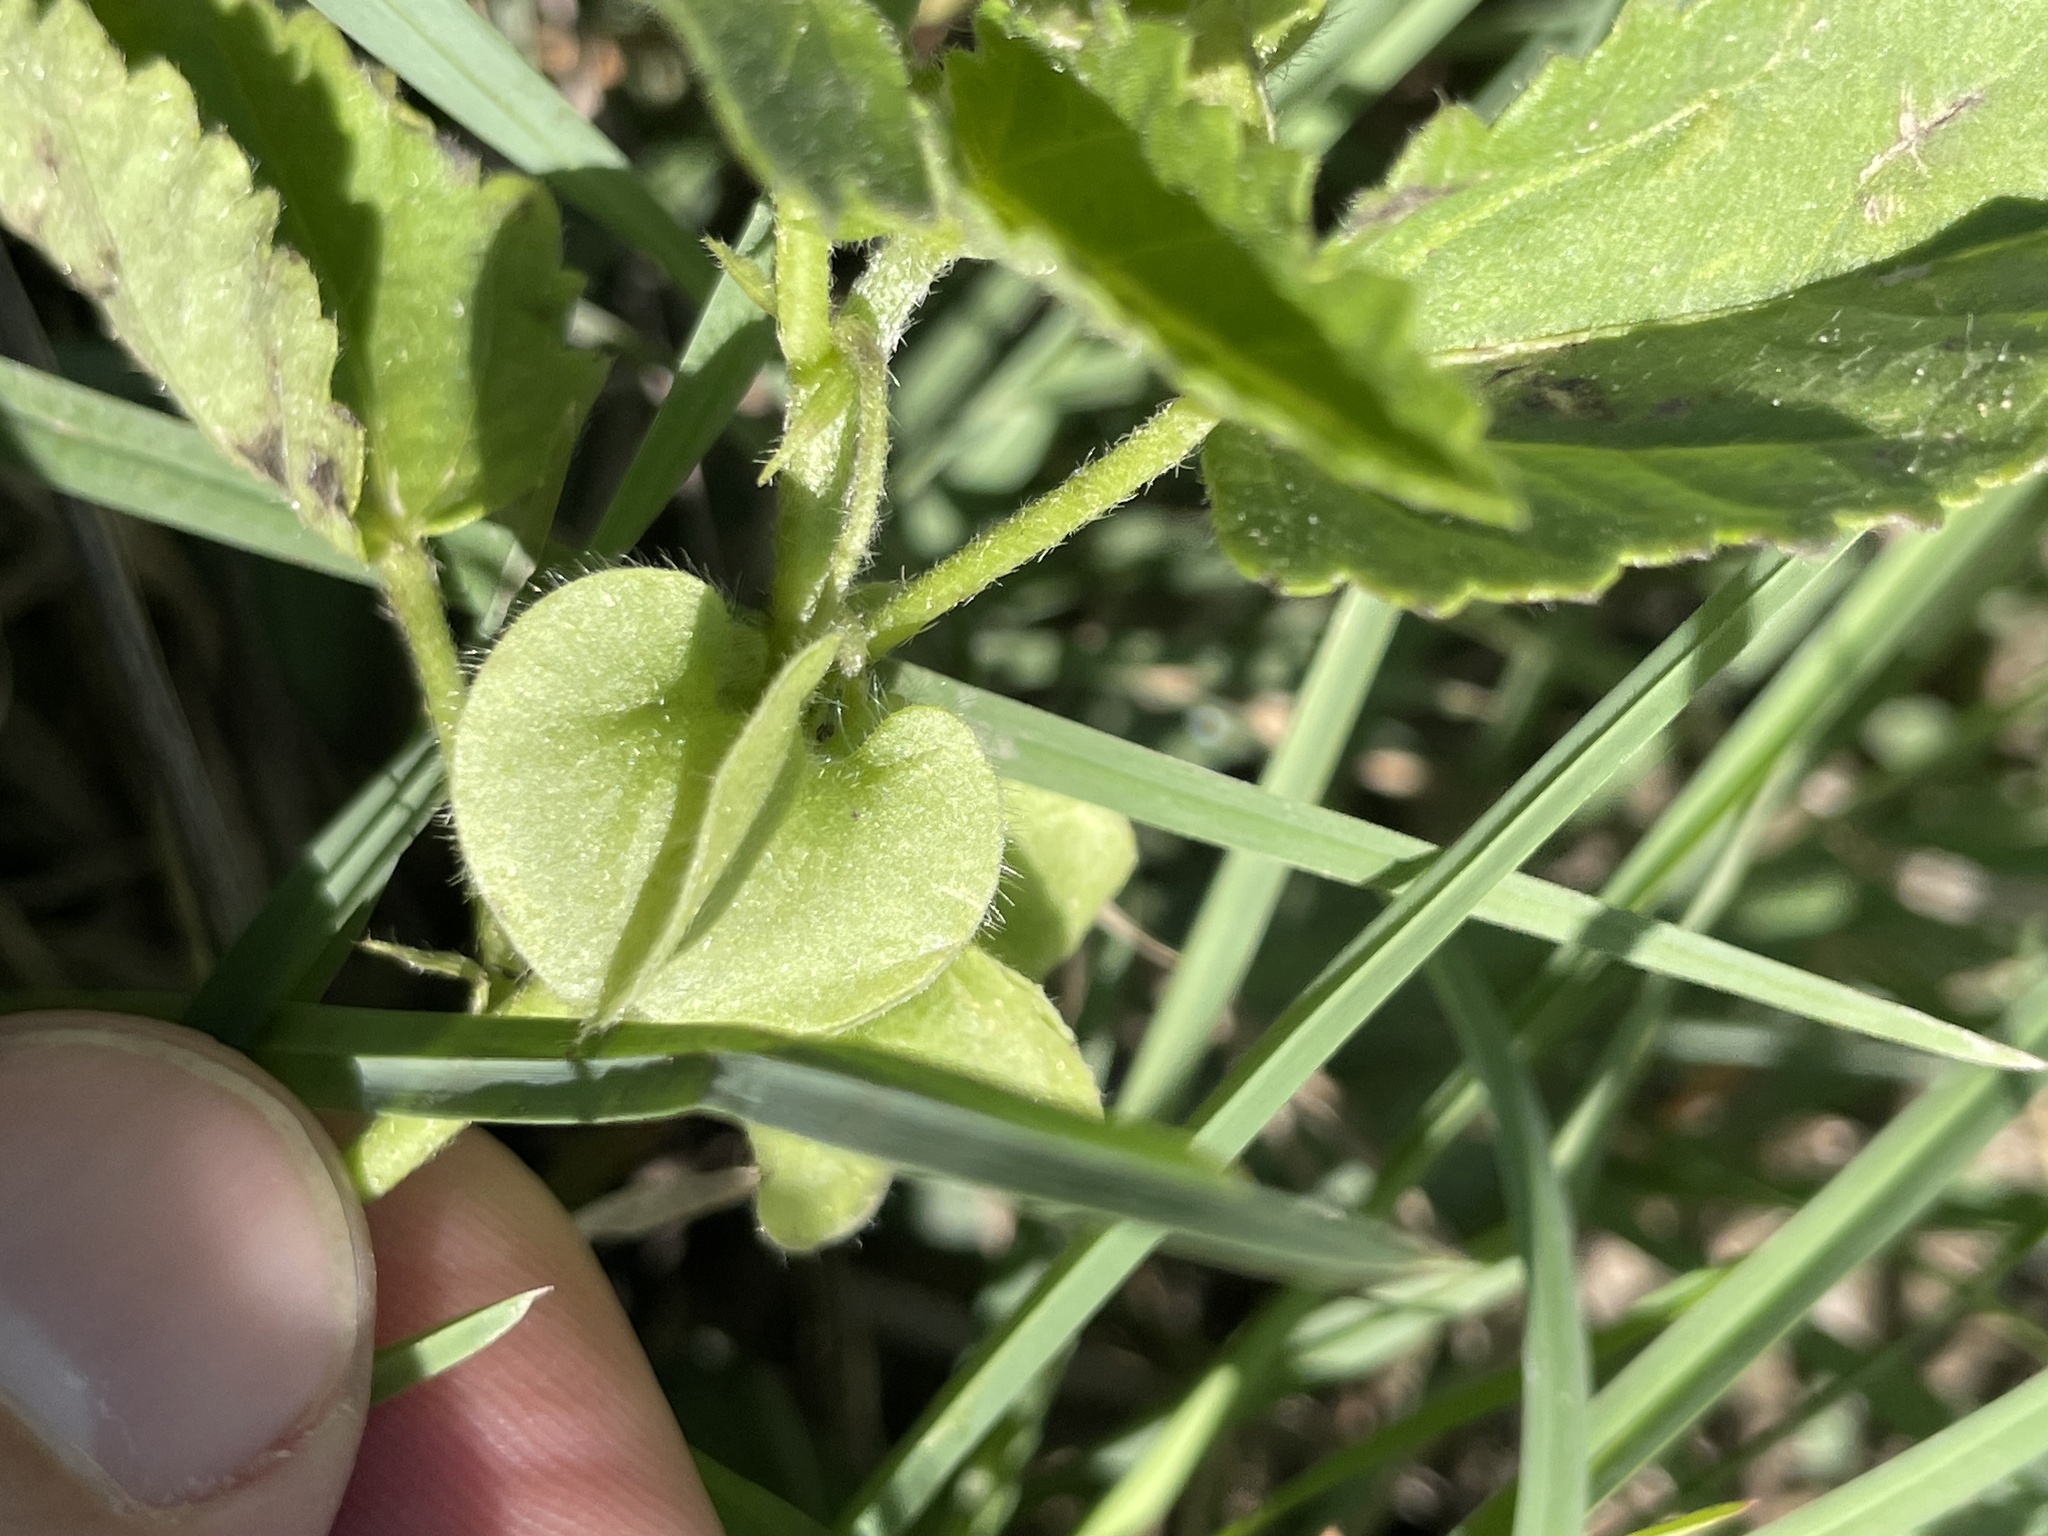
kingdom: Plantae
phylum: Tracheophyta
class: Magnoliopsida
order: Malvales
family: Malvaceae
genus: Rhynchosida
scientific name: Rhynchosida physocalyx
